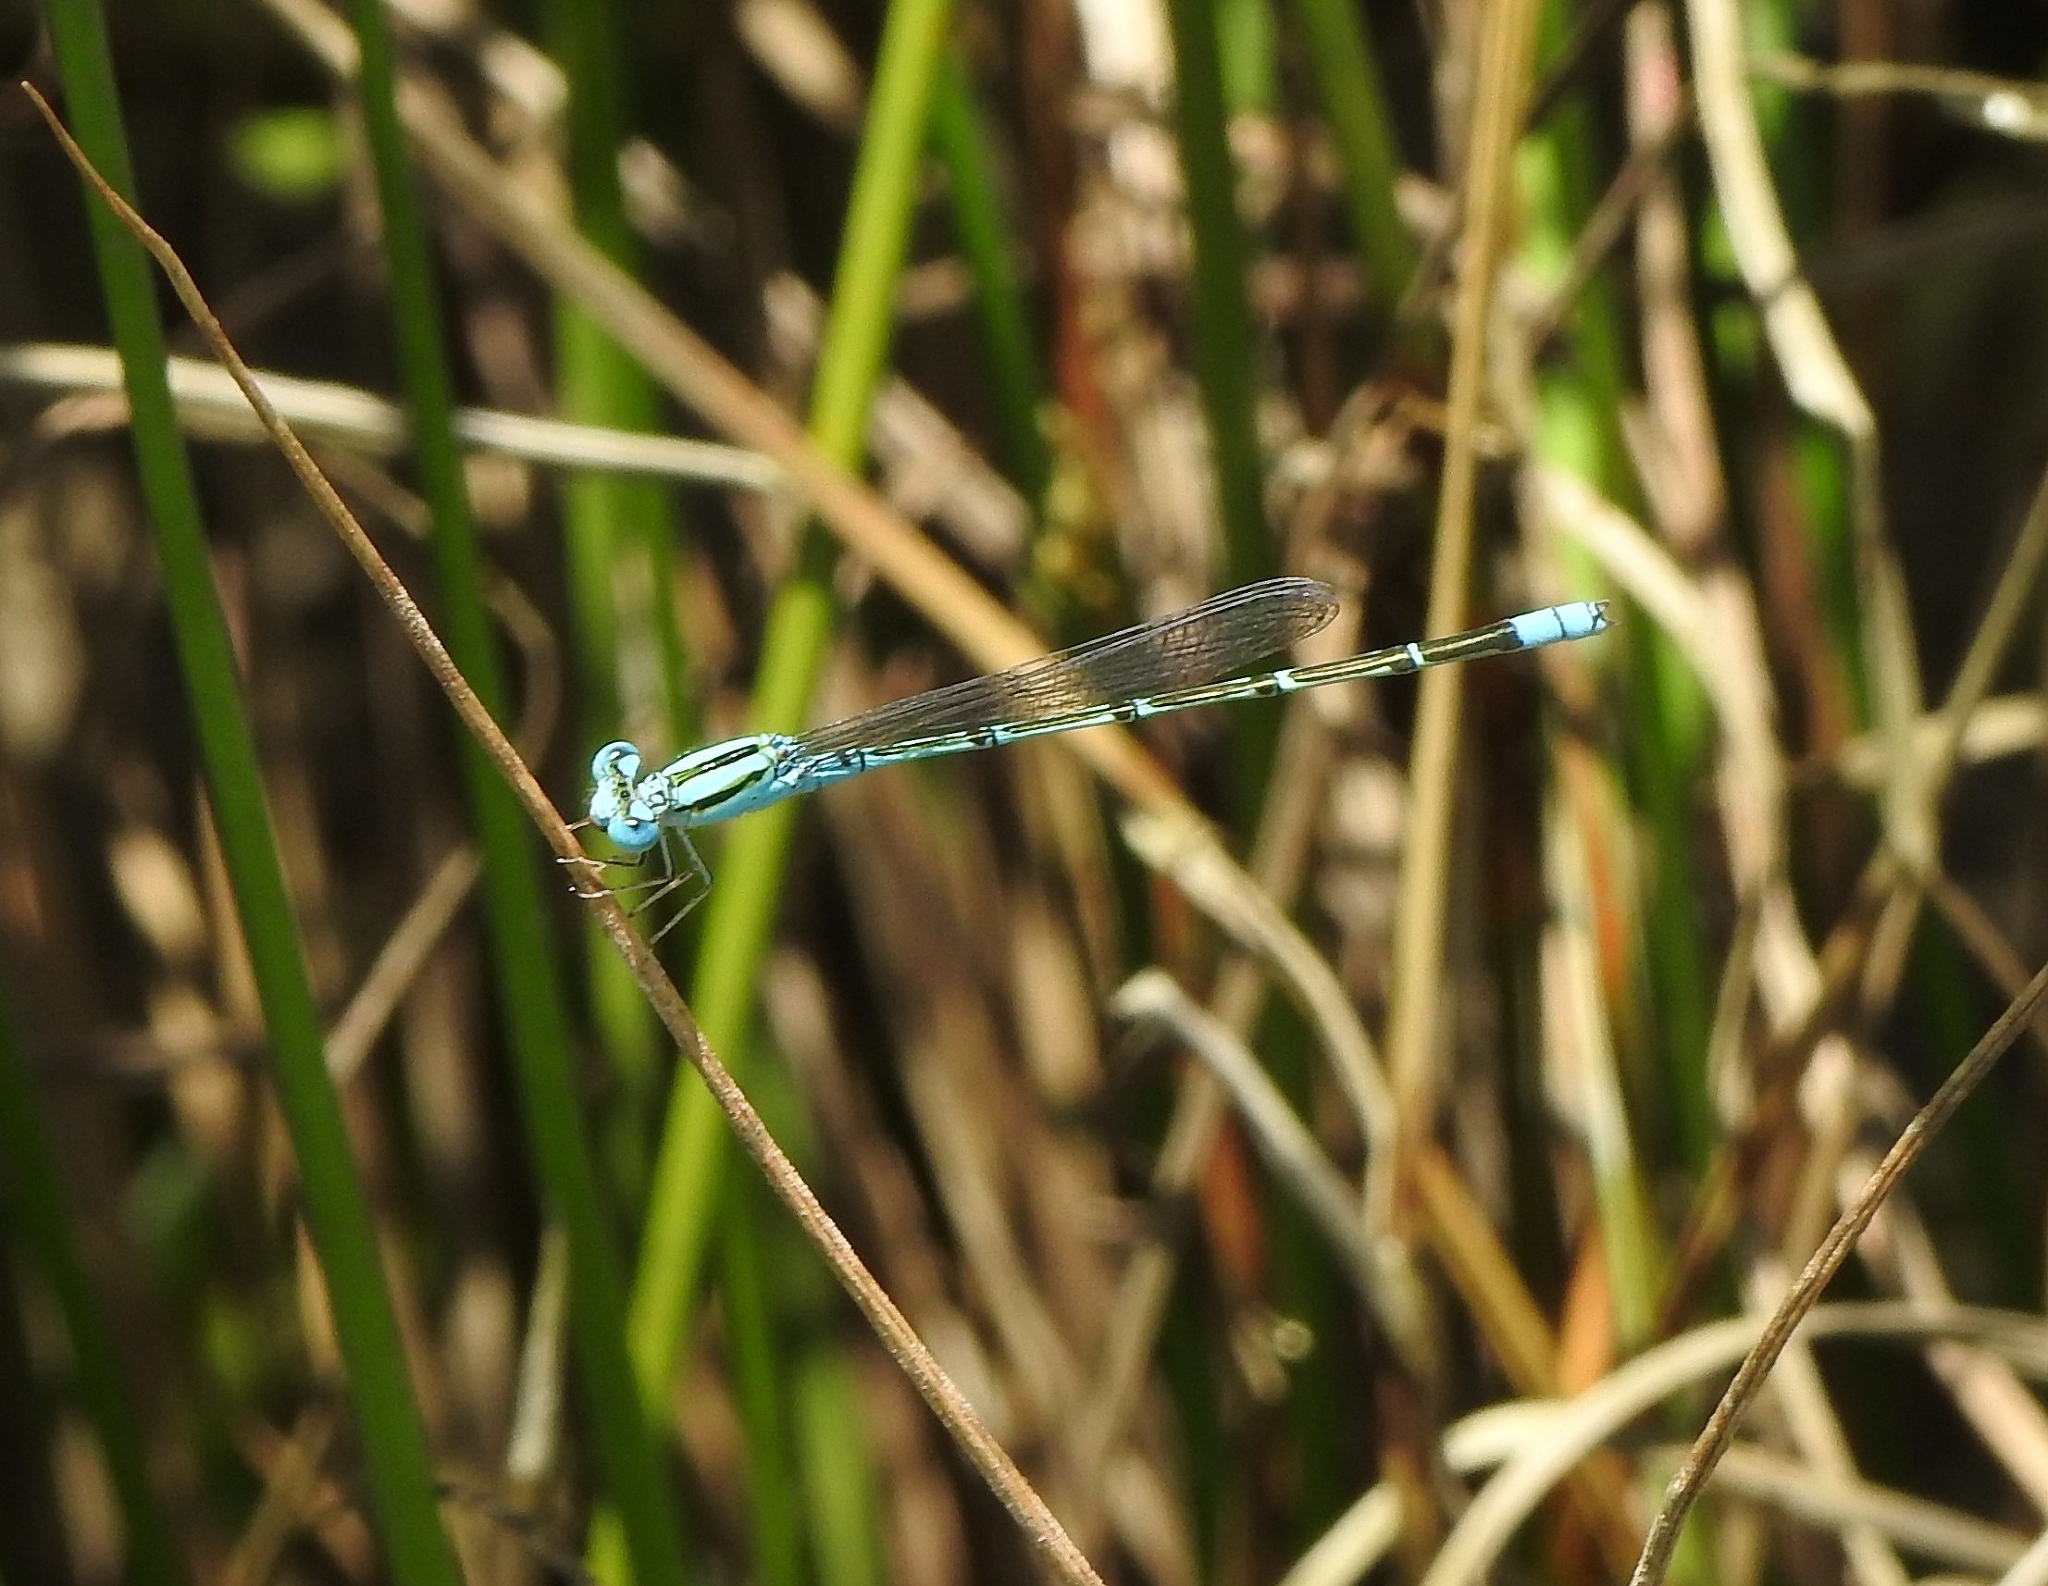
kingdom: Animalia
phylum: Arthropoda
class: Insecta
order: Odonata
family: Coenagrionidae
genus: Pseudagrion
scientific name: Pseudagrion microcephalum
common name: Blue riverdamsel
